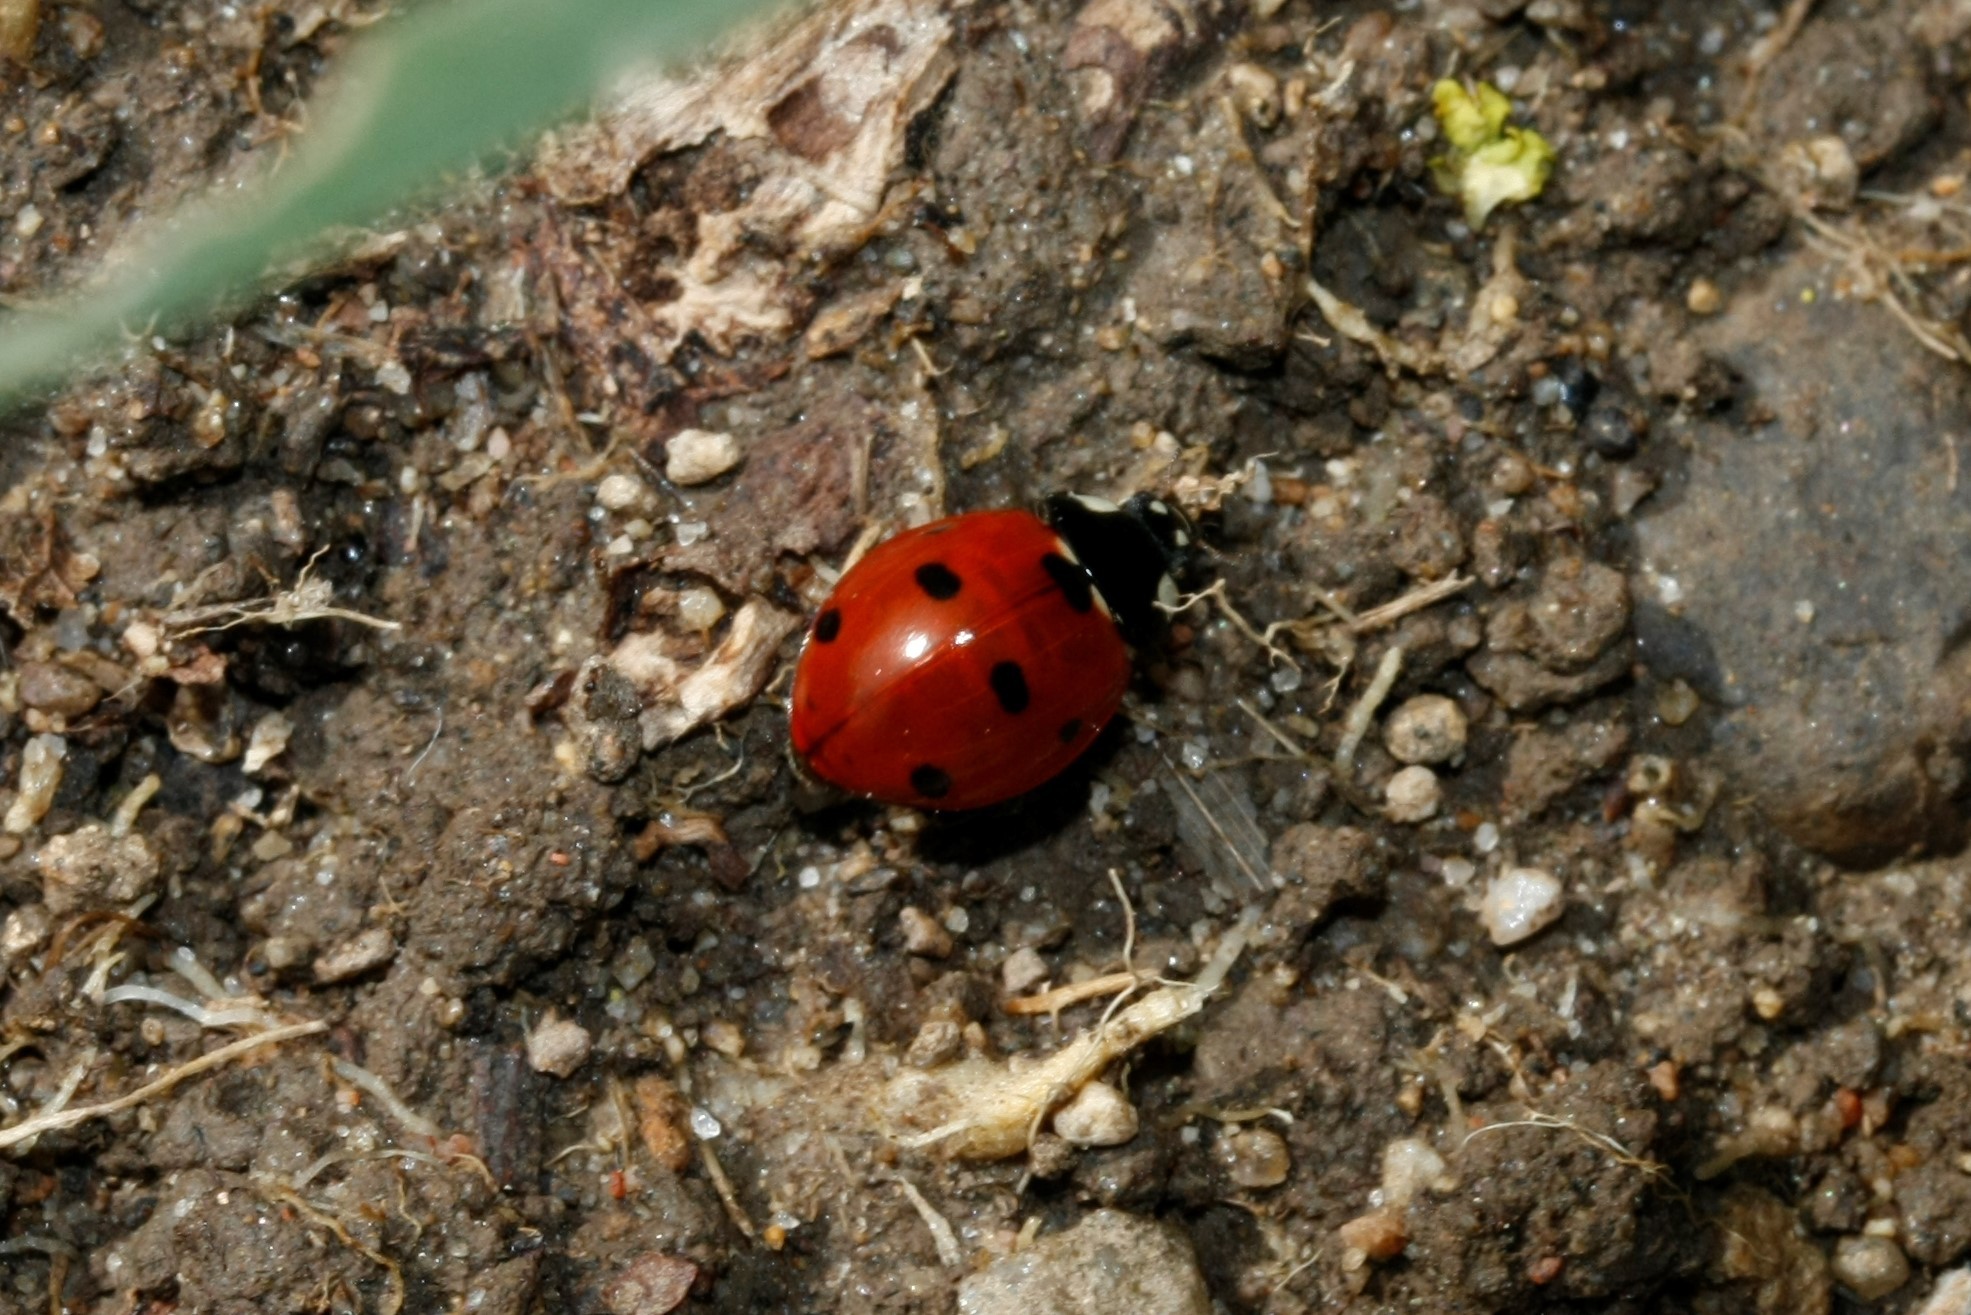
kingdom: Animalia
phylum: Arthropoda
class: Insecta
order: Coleoptera
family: Coccinellidae
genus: Coccinella
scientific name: Coccinella septempunctata
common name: Sevenspotted lady beetle
